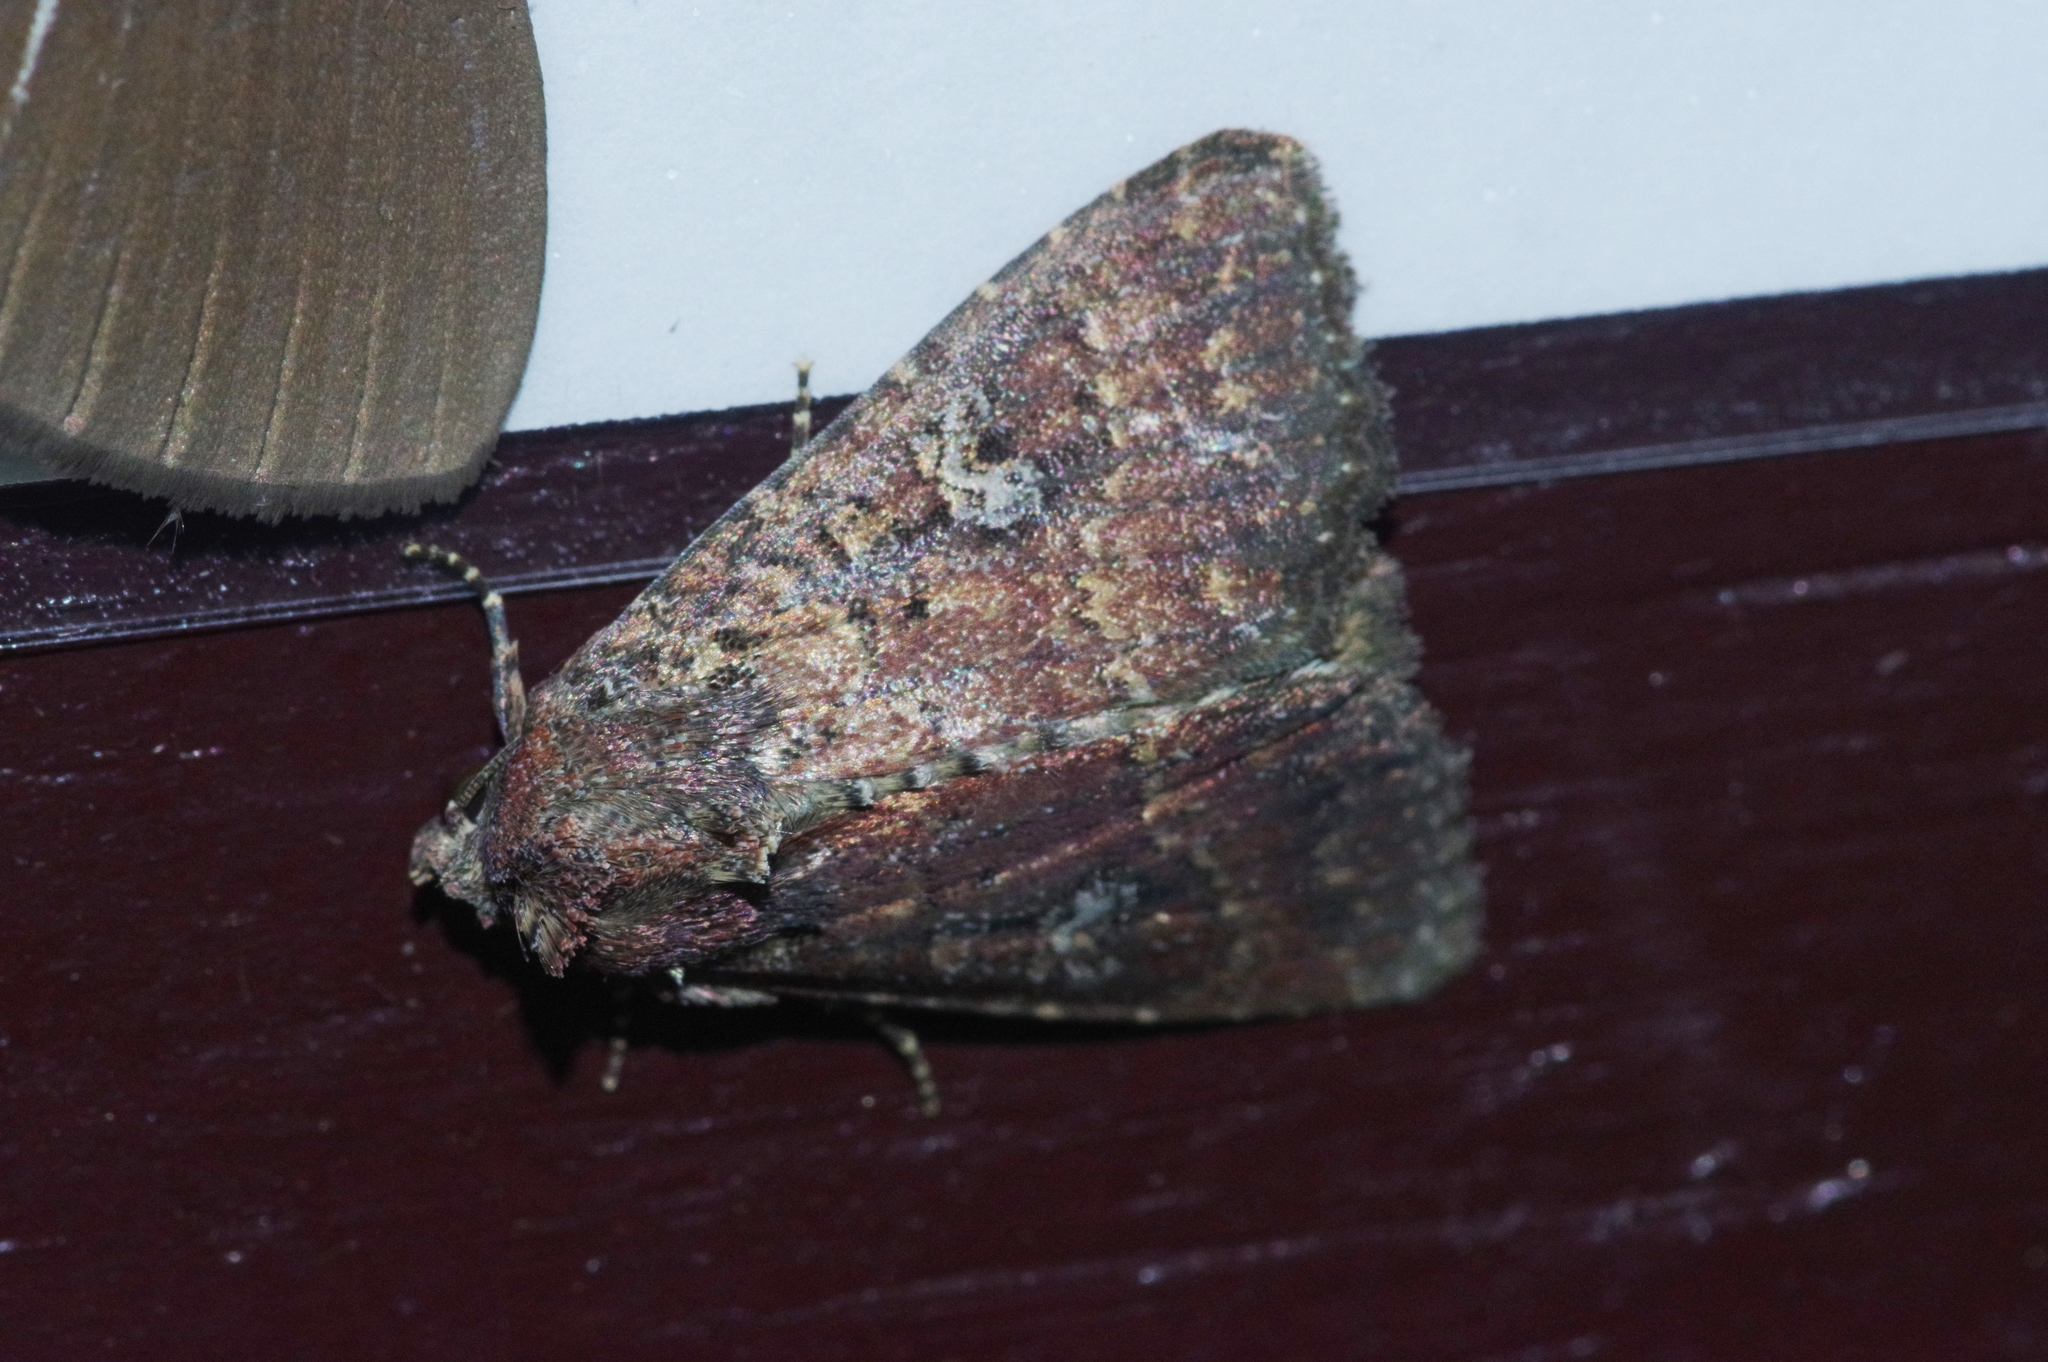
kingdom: Animalia
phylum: Arthropoda
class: Insecta
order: Lepidoptera
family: Noctuidae
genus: Condica
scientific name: Condica illecta
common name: Cutworm
